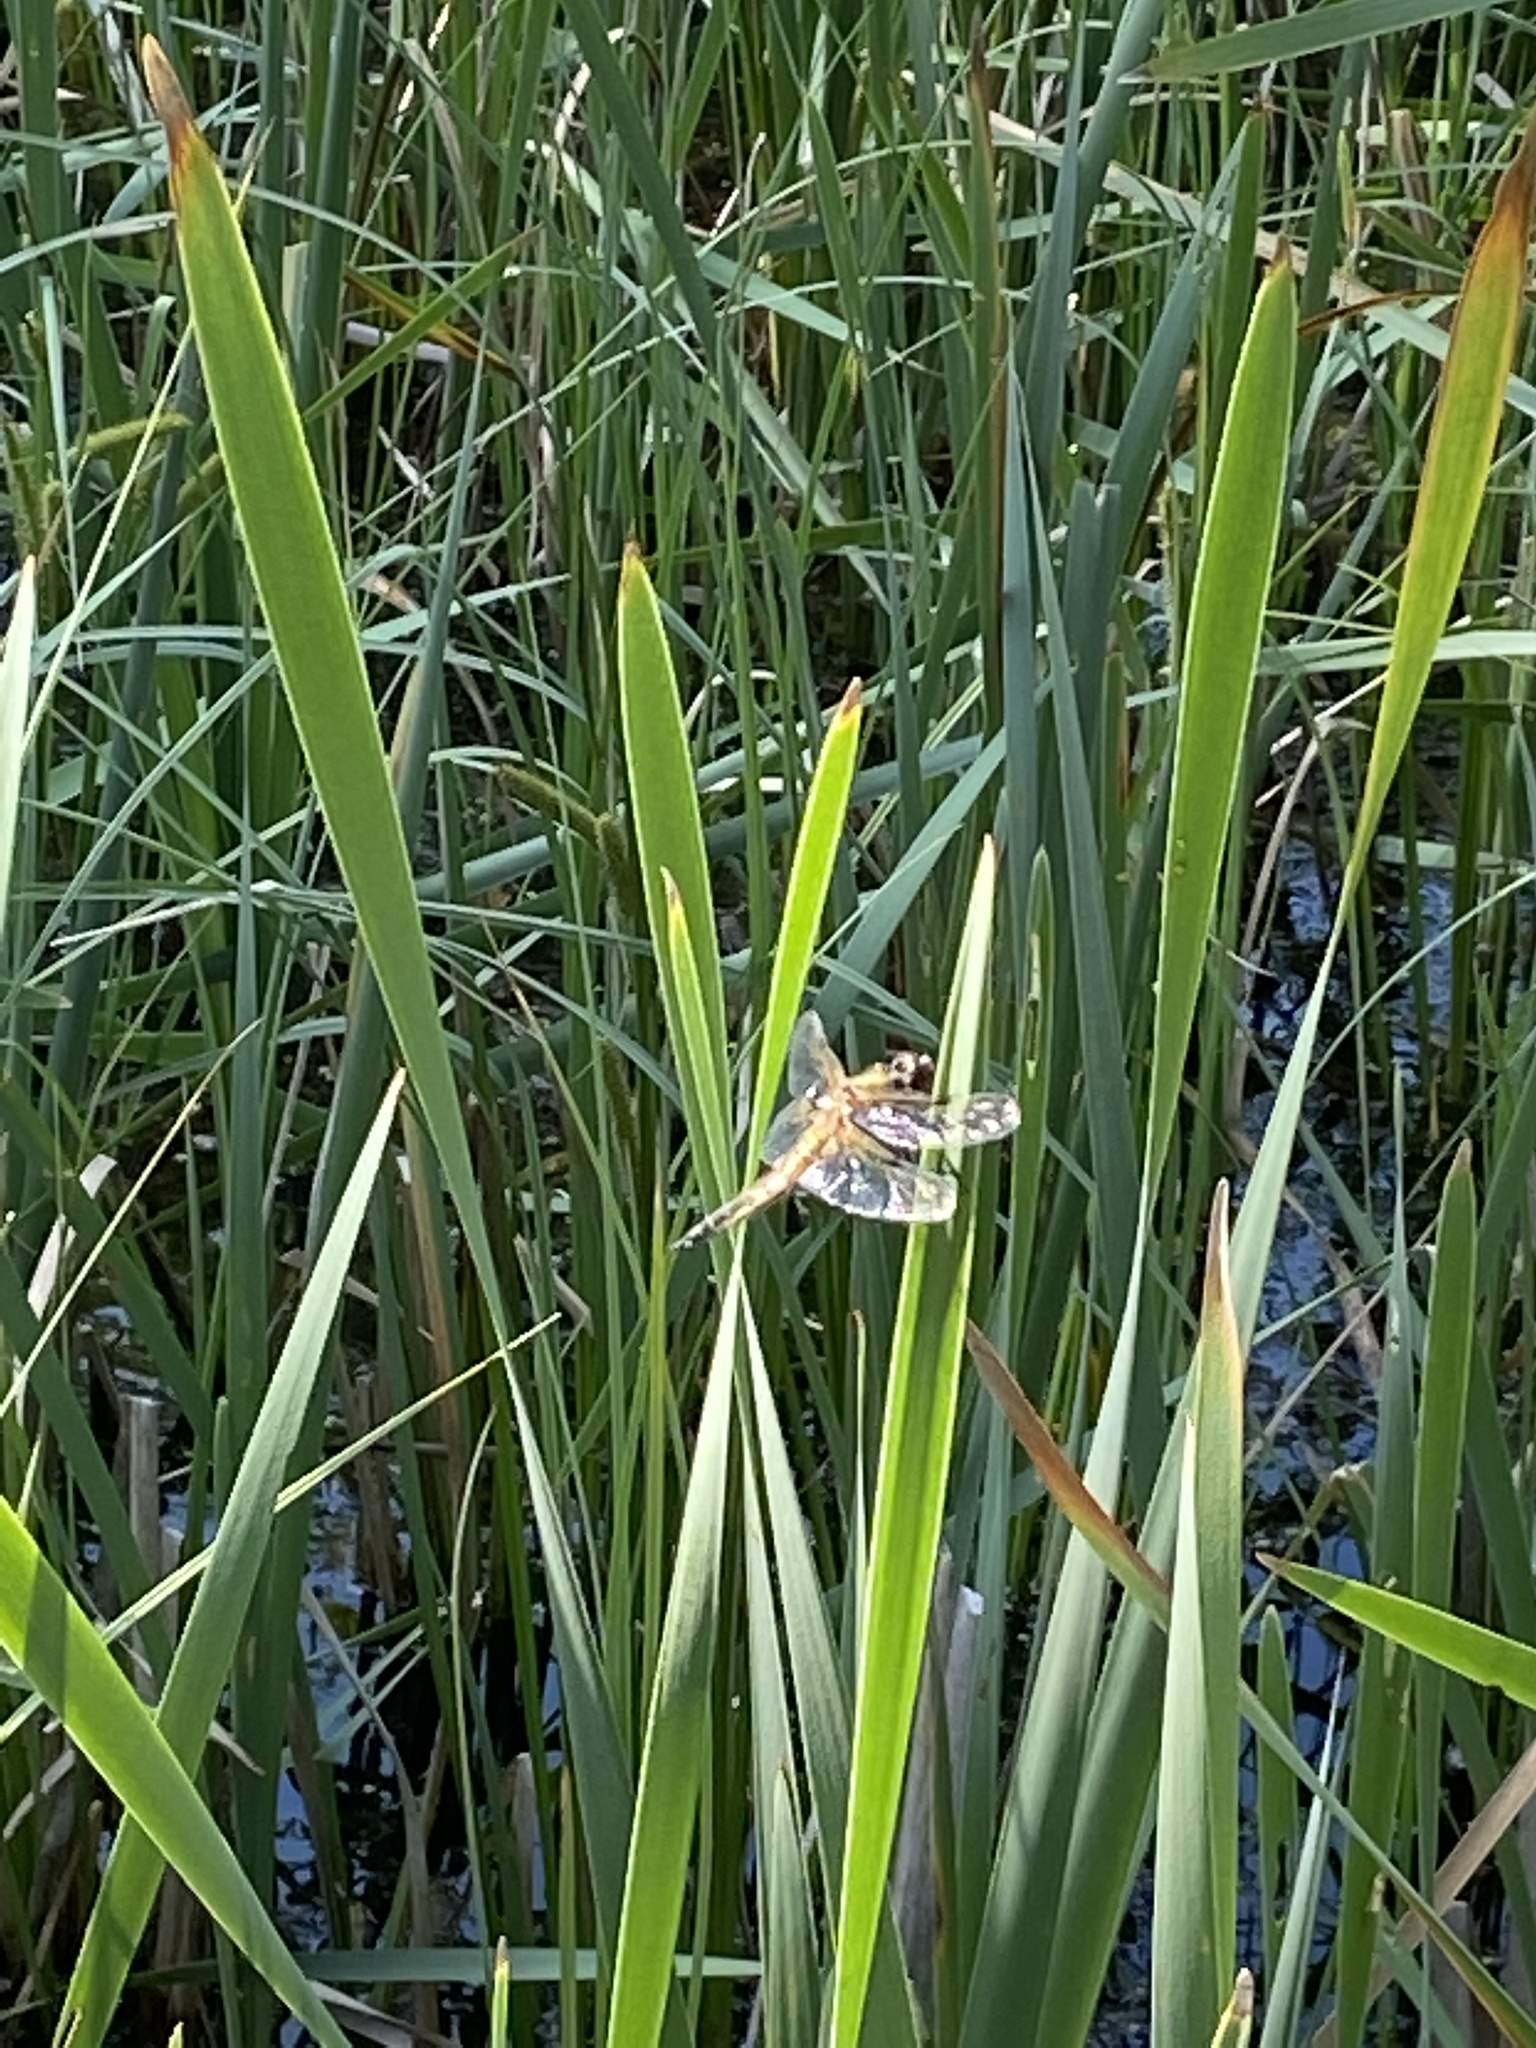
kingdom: Animalia
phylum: Arthropoda
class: Insecta
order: Odonata
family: Libellulidae
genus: Libellula
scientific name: Libellula quadrimaculata
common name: Four-spotted chaser
